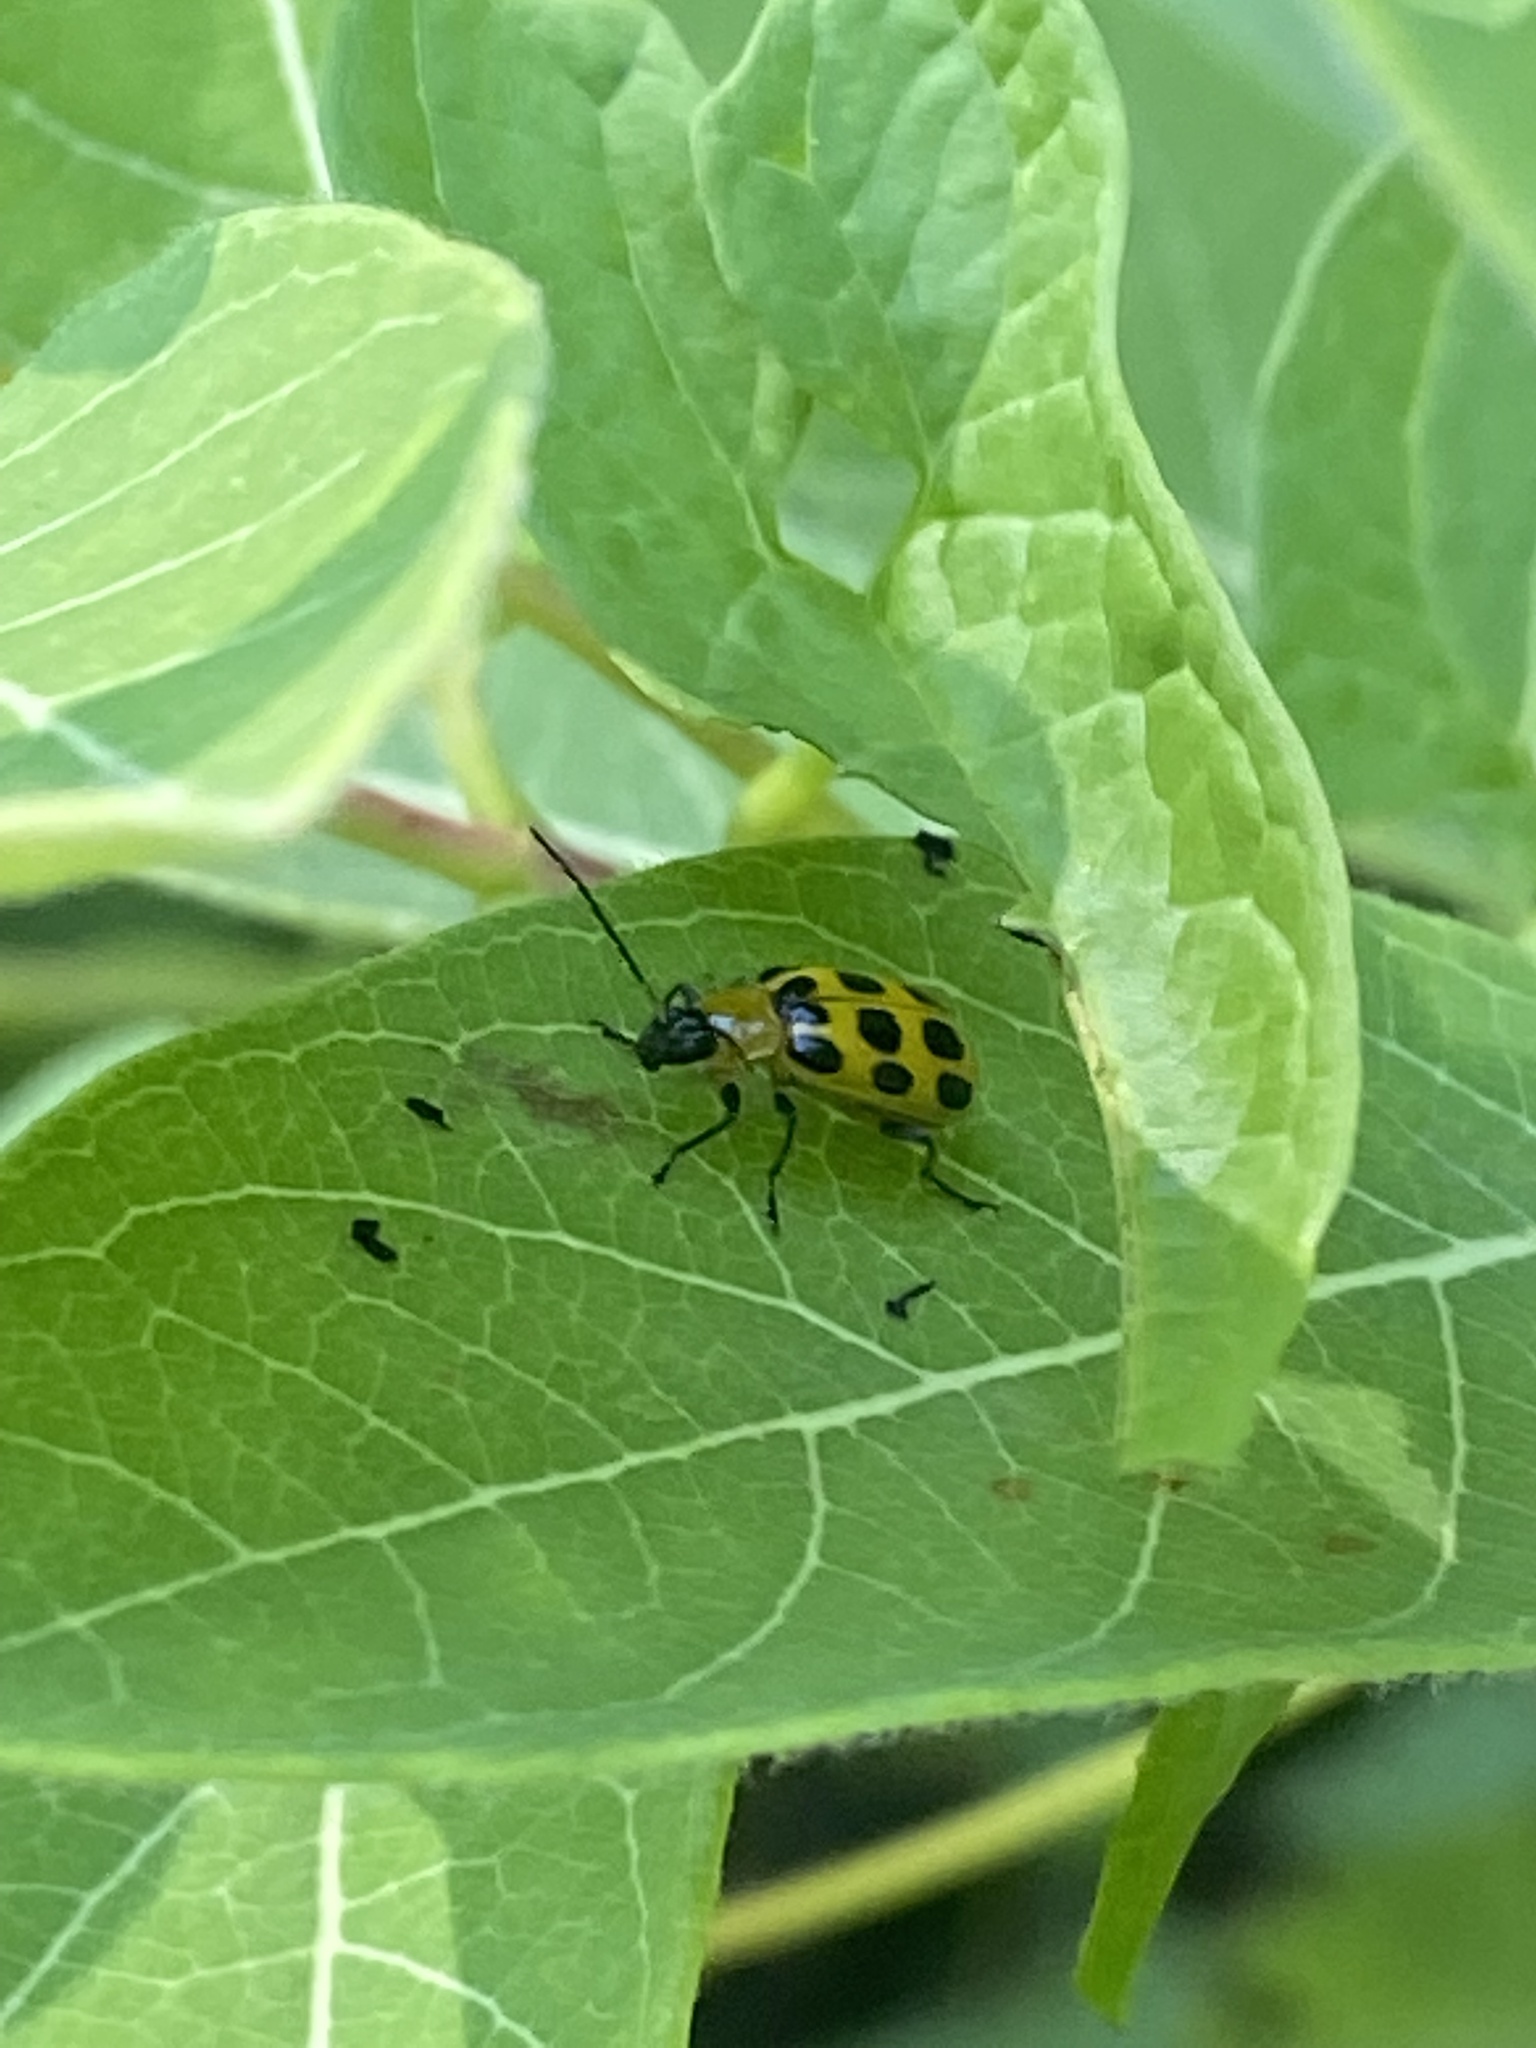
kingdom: Animalia
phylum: Arthropoda
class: Insecta
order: Coleoptera
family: Chrysomelidae
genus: Diabrotica
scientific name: Diabrotica undecimpunctata
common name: Spotted cucumber beetle
